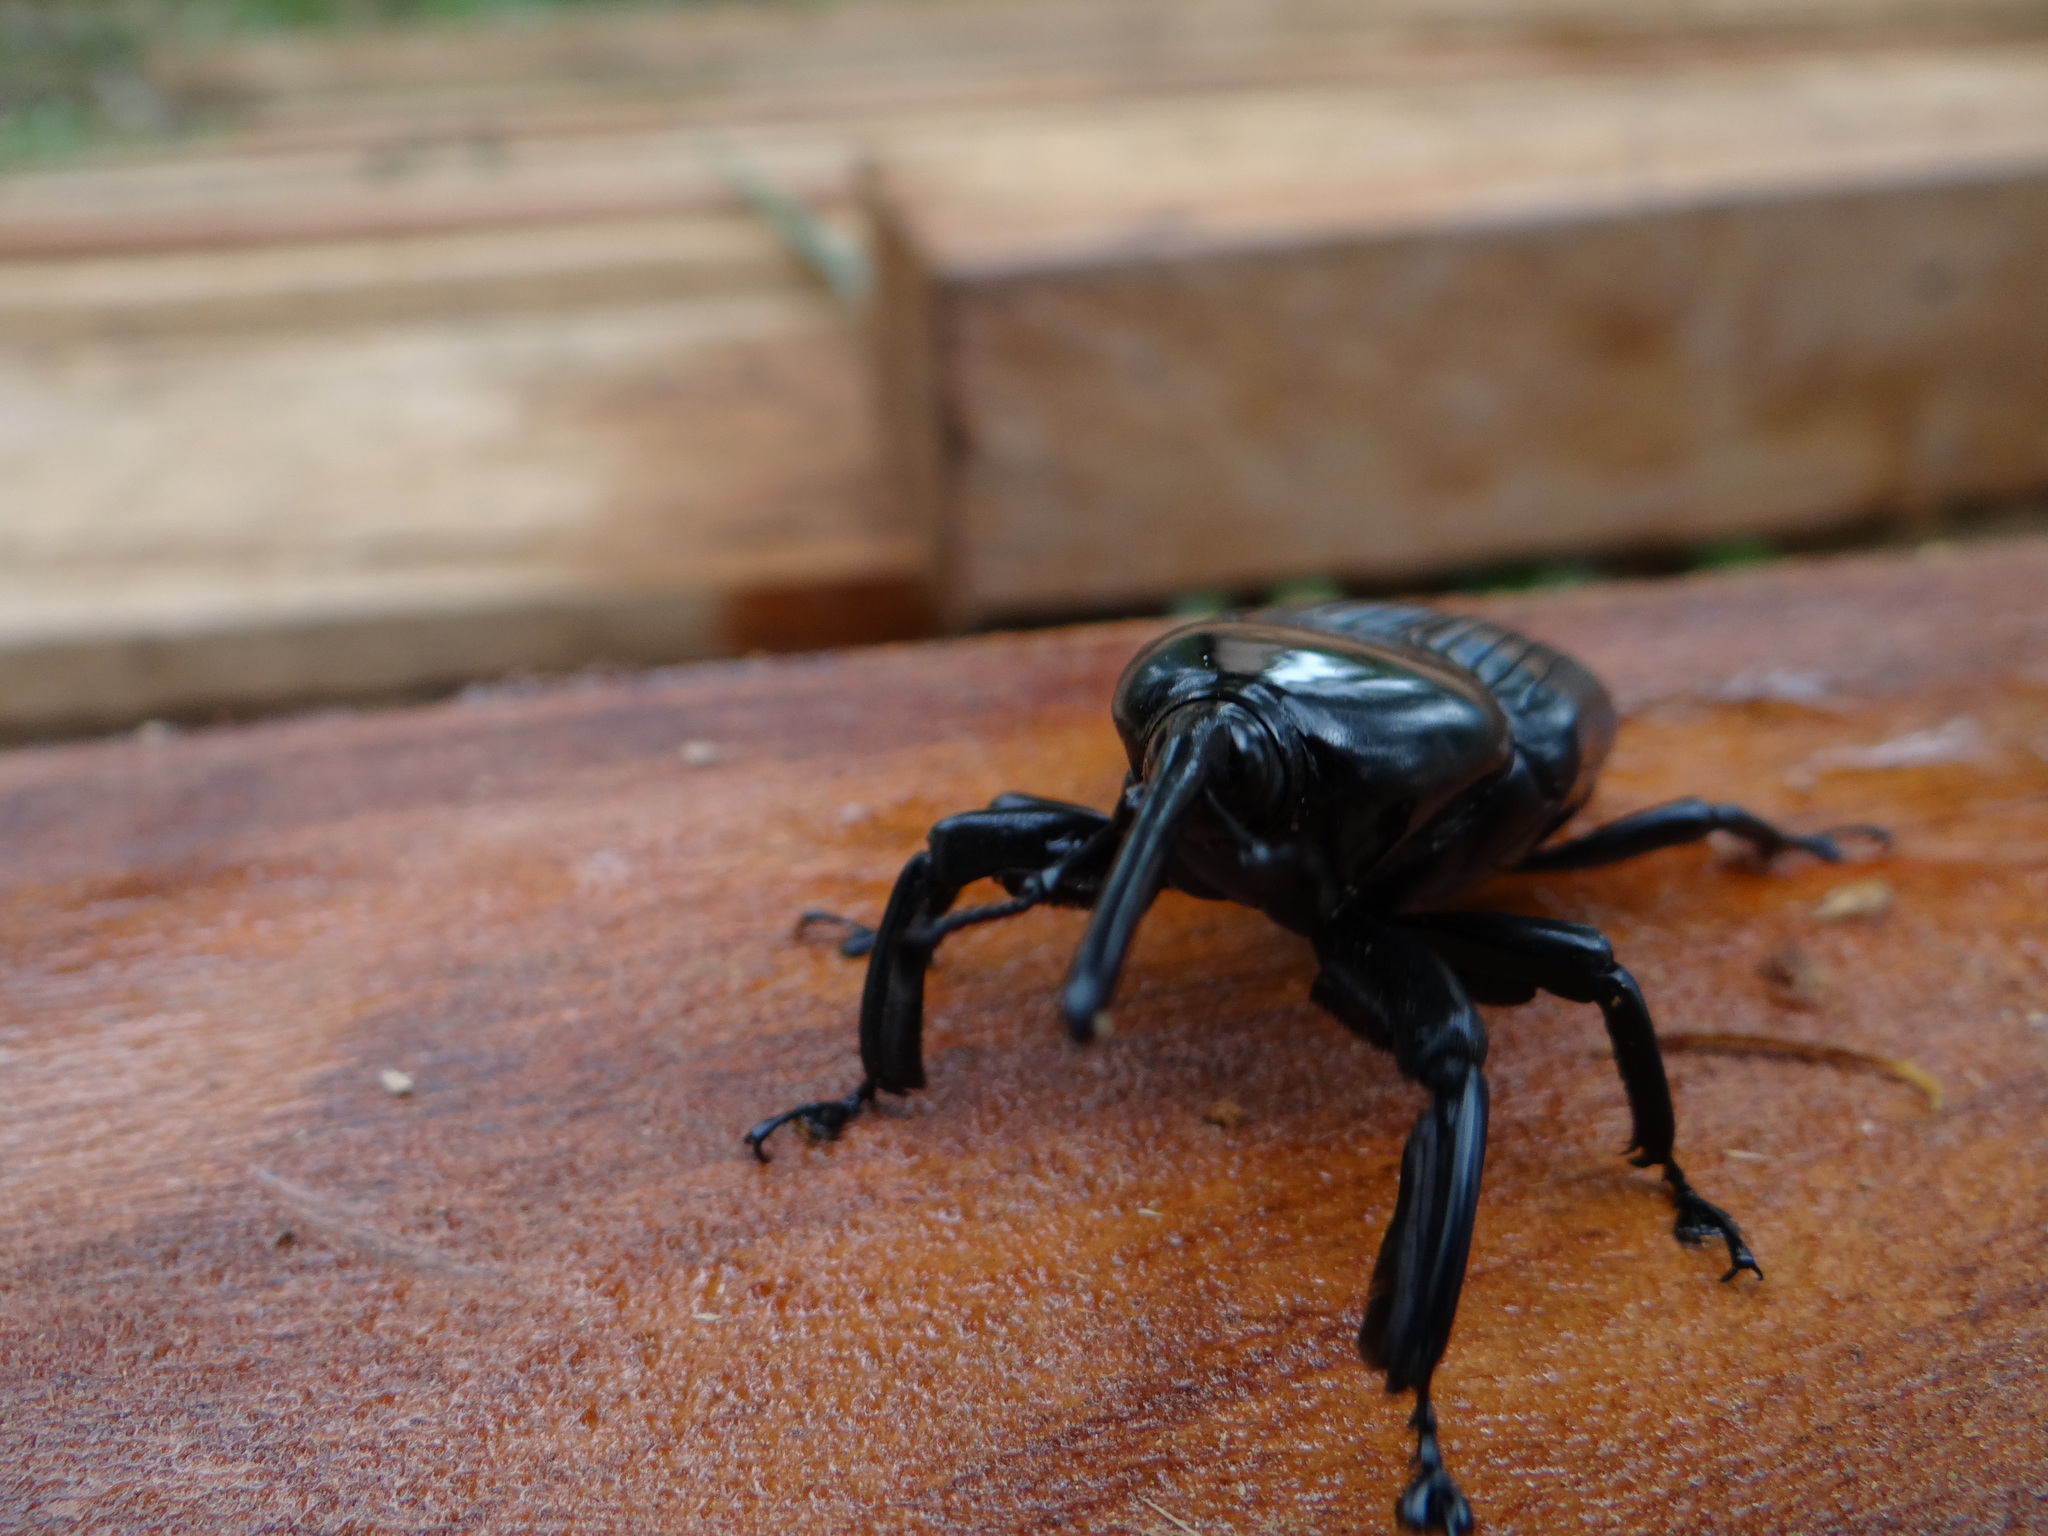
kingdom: Animalia
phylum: Arthropoda
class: Insecta
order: Coleoptera
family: Dryophthoridae
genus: Dynamis
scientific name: Dynamis borassi
